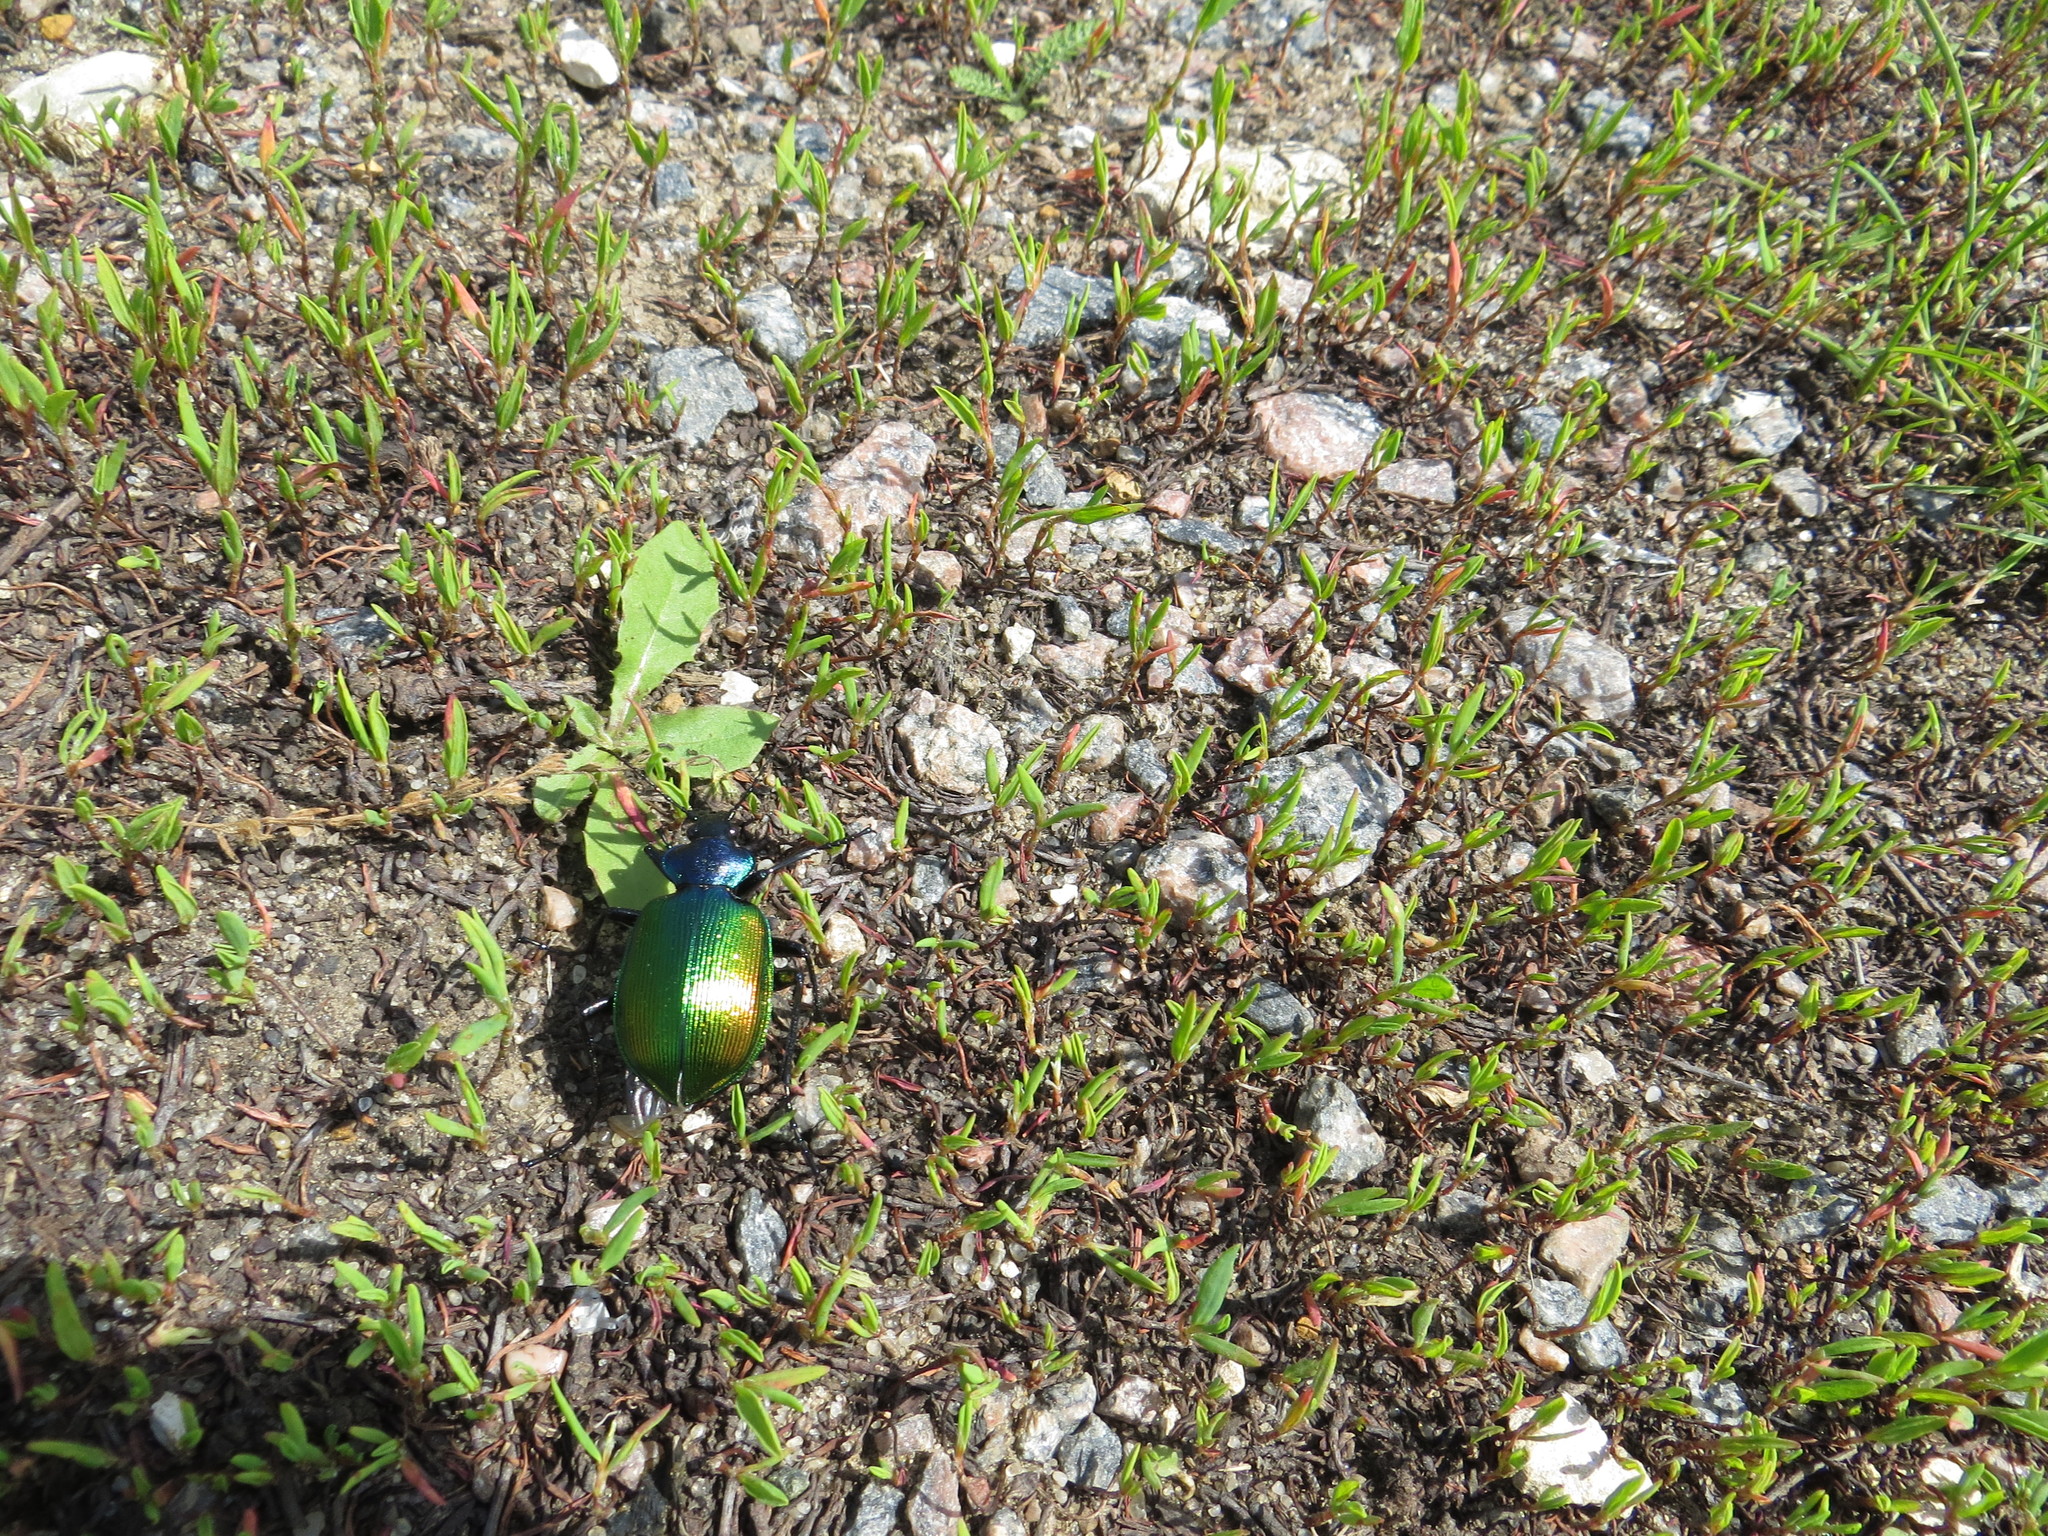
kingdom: Animalia
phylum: Arthropoda
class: Insecta
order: Coleoptera
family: Carabidae
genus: Calosoma
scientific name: Calosoma sycophanta
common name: Forest caterpillar hunter
